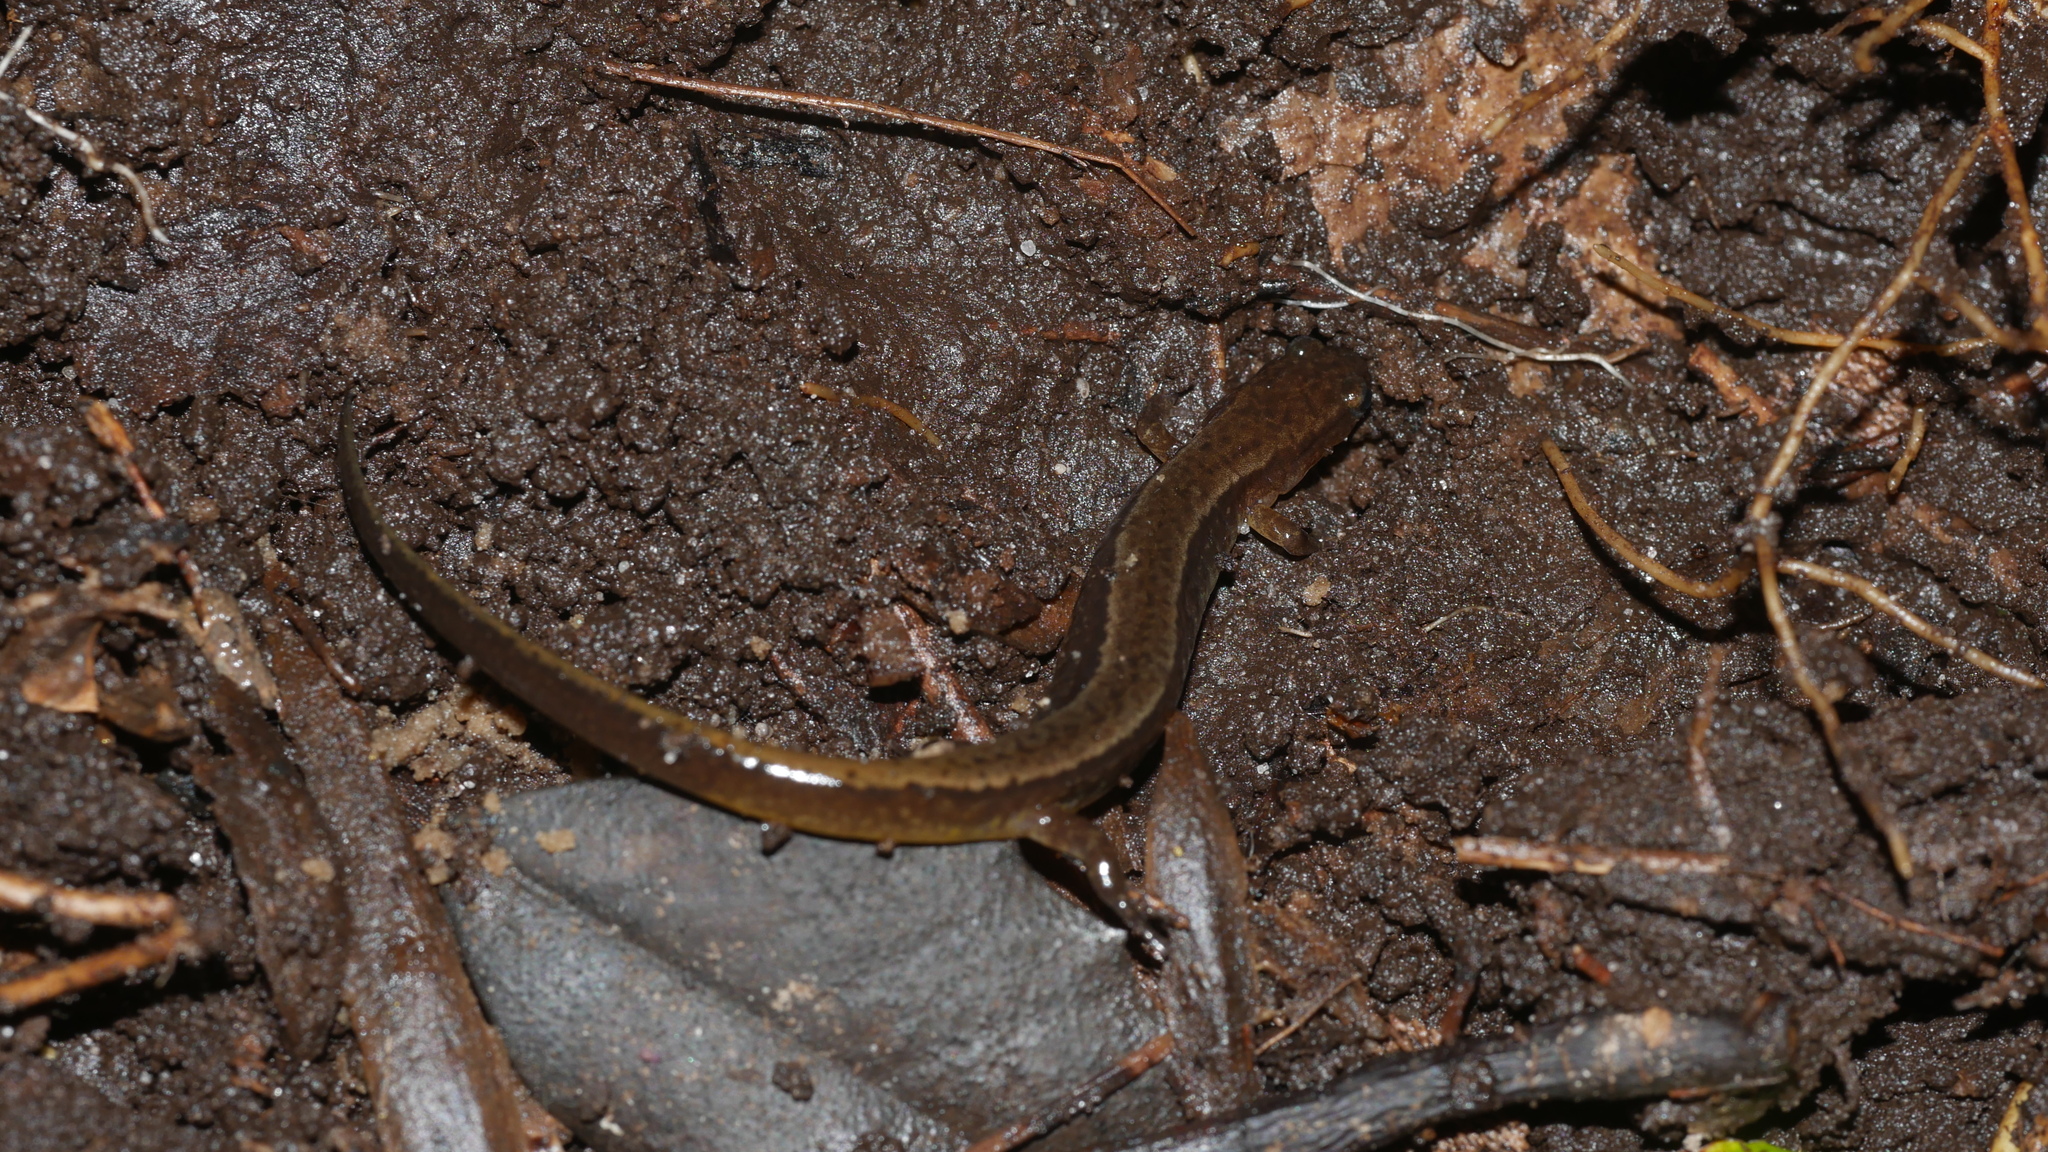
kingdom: Animalia
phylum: Chordata
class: Amphibia
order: Caudata
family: Plethodontidae
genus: Eurycea
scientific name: Eurycea cirrigera
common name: Southern two-lined salamander
